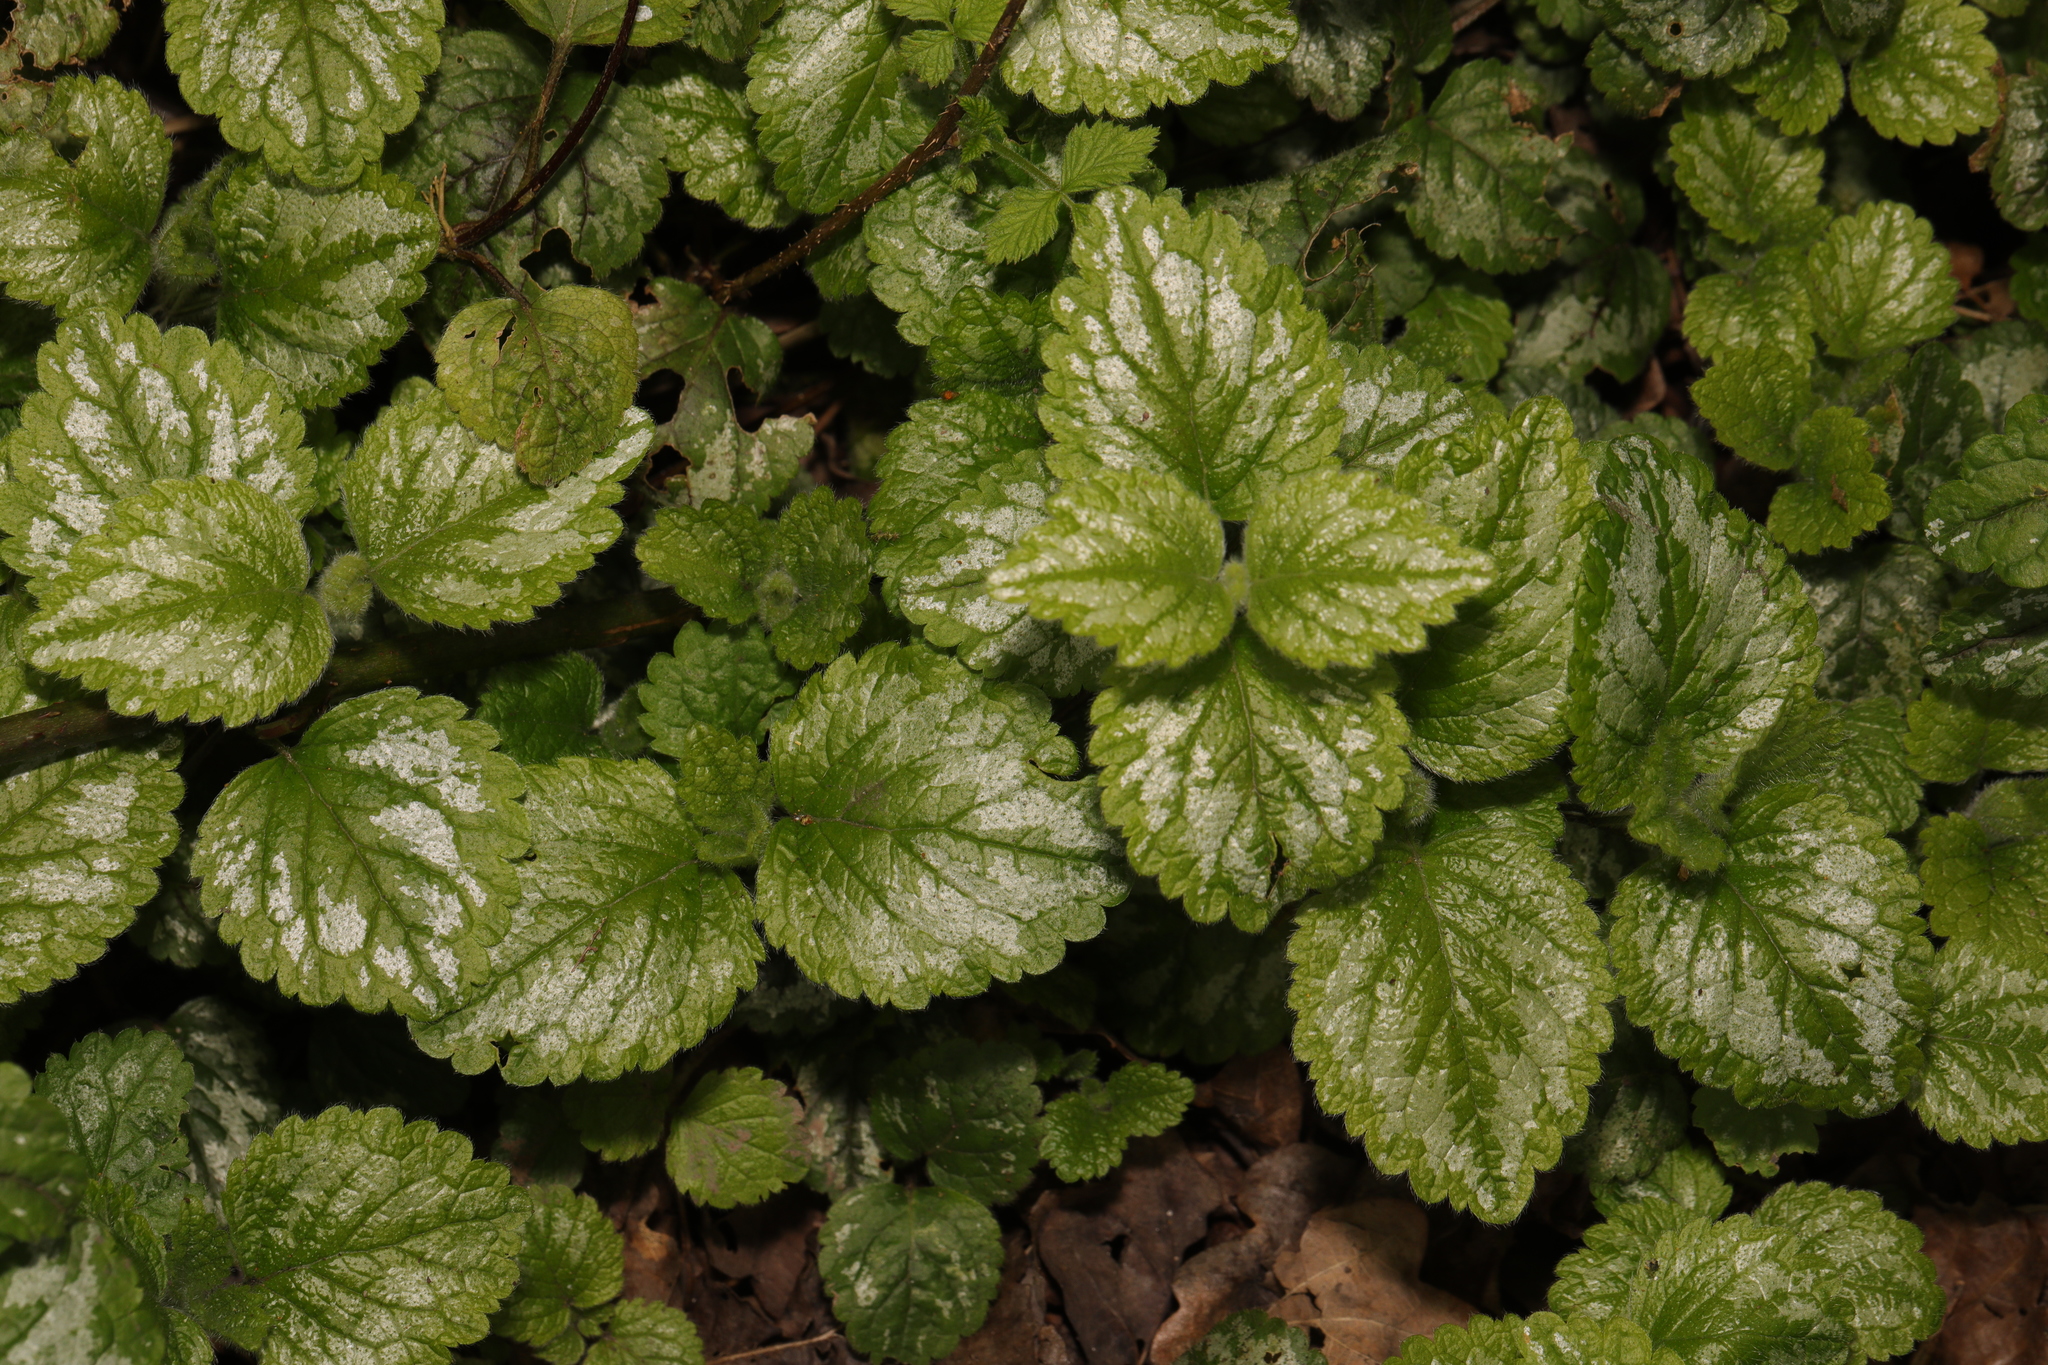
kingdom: Plantae
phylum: Tracheophyta
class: Magnoliopsida
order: Lamiales
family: Lamiaceae
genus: Lamium
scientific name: Lamium galeobdolon
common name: Yellow archangel
